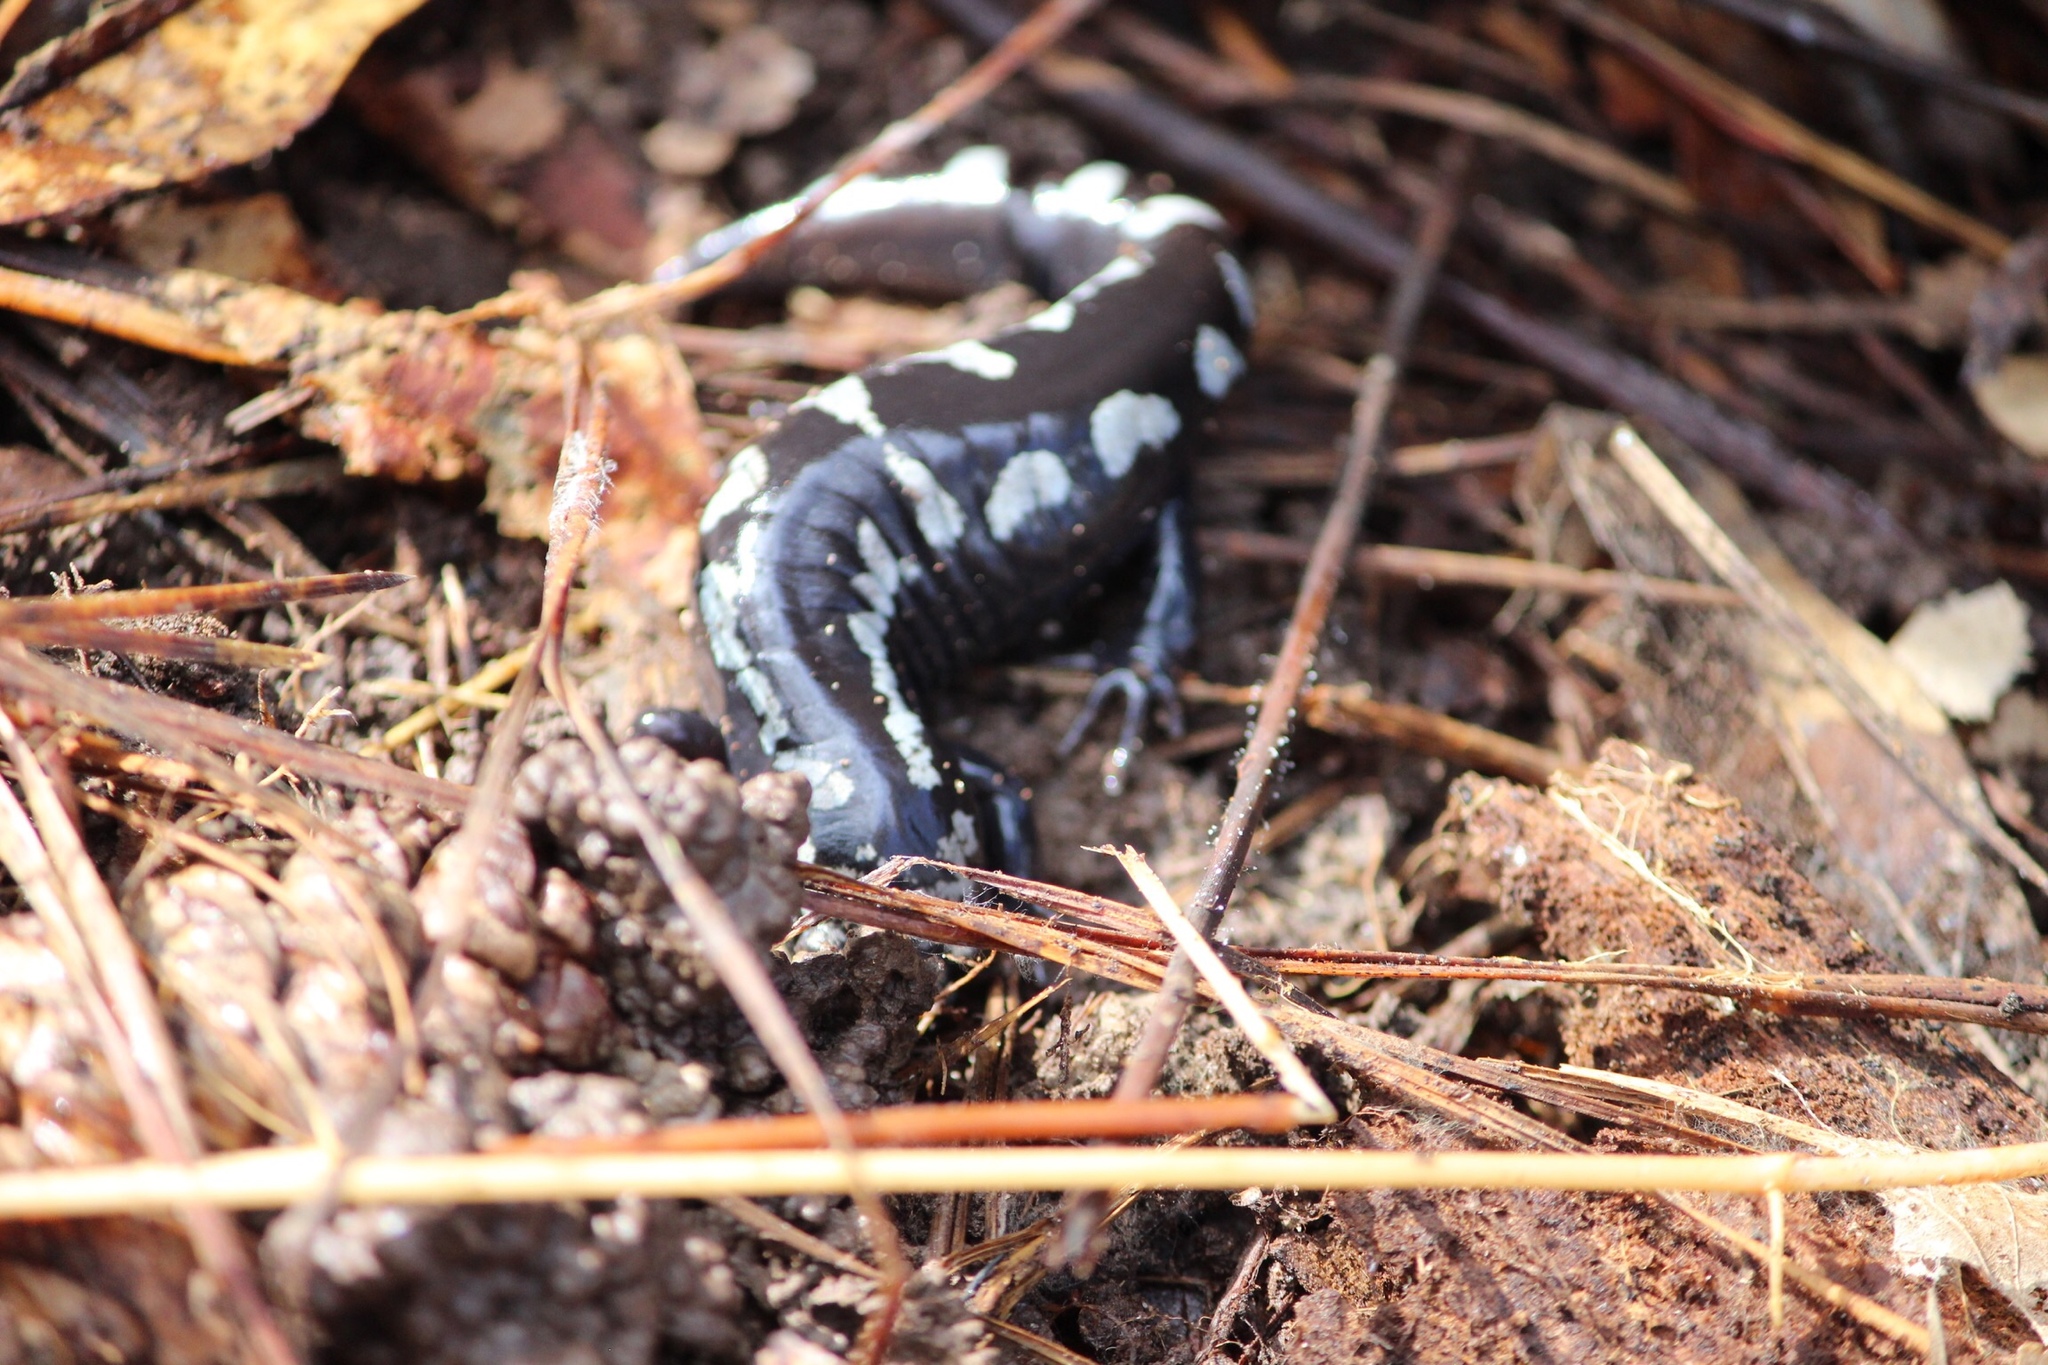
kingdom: Animalia
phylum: Chordata
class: Amphibia
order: Caudata
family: Ambystomatidae
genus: Ambystoma
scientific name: Ambystoma opacum
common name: Marbled salamander
